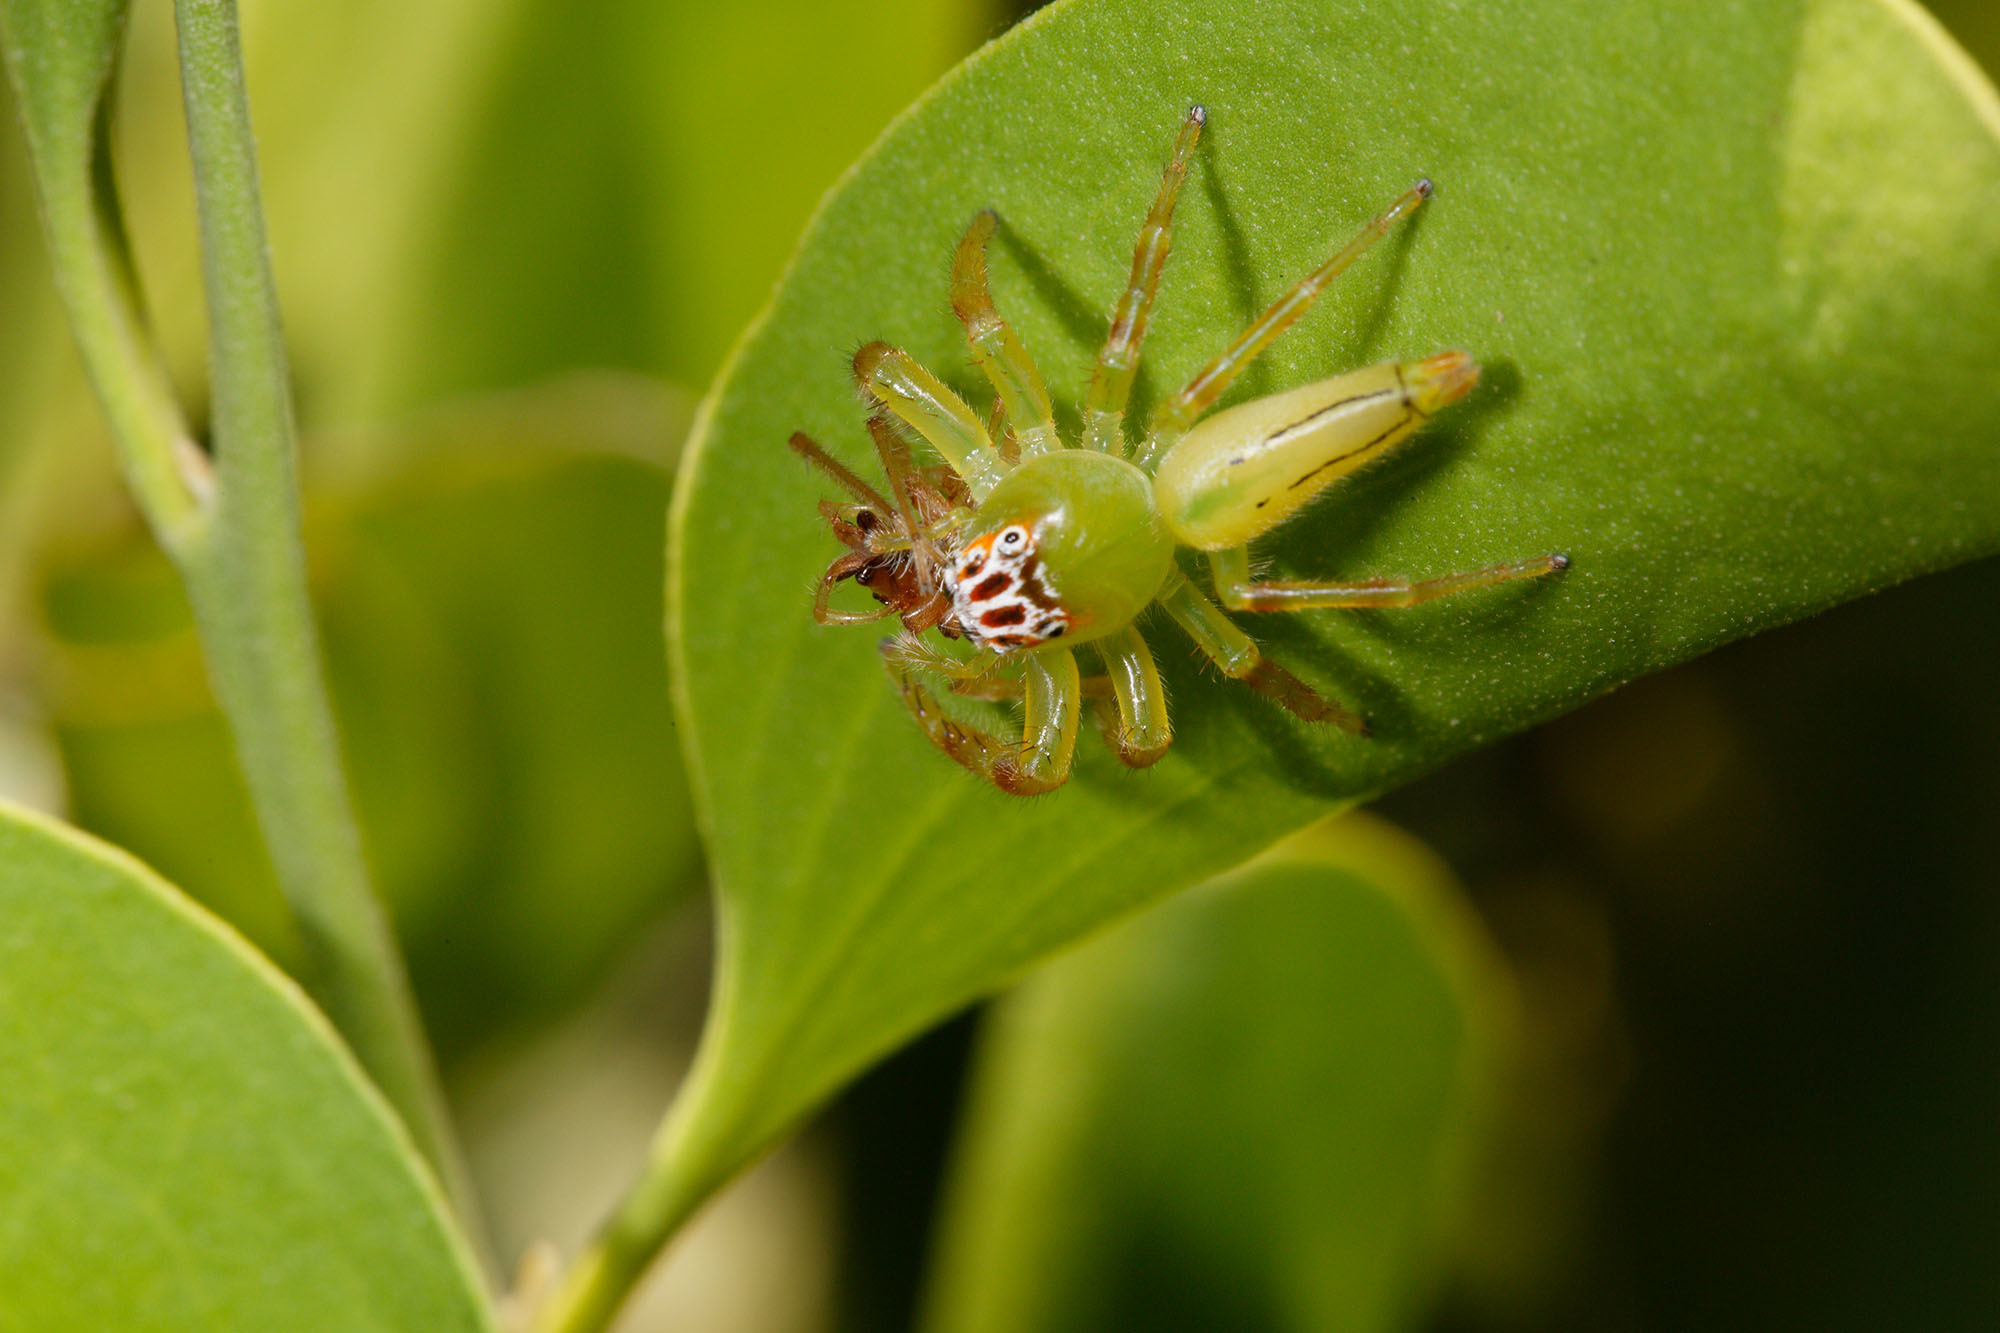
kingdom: Animalia
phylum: Arthropoda
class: Arachnida
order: Araneae
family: Salticidae
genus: Mopsus
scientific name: Mopsus mormon
